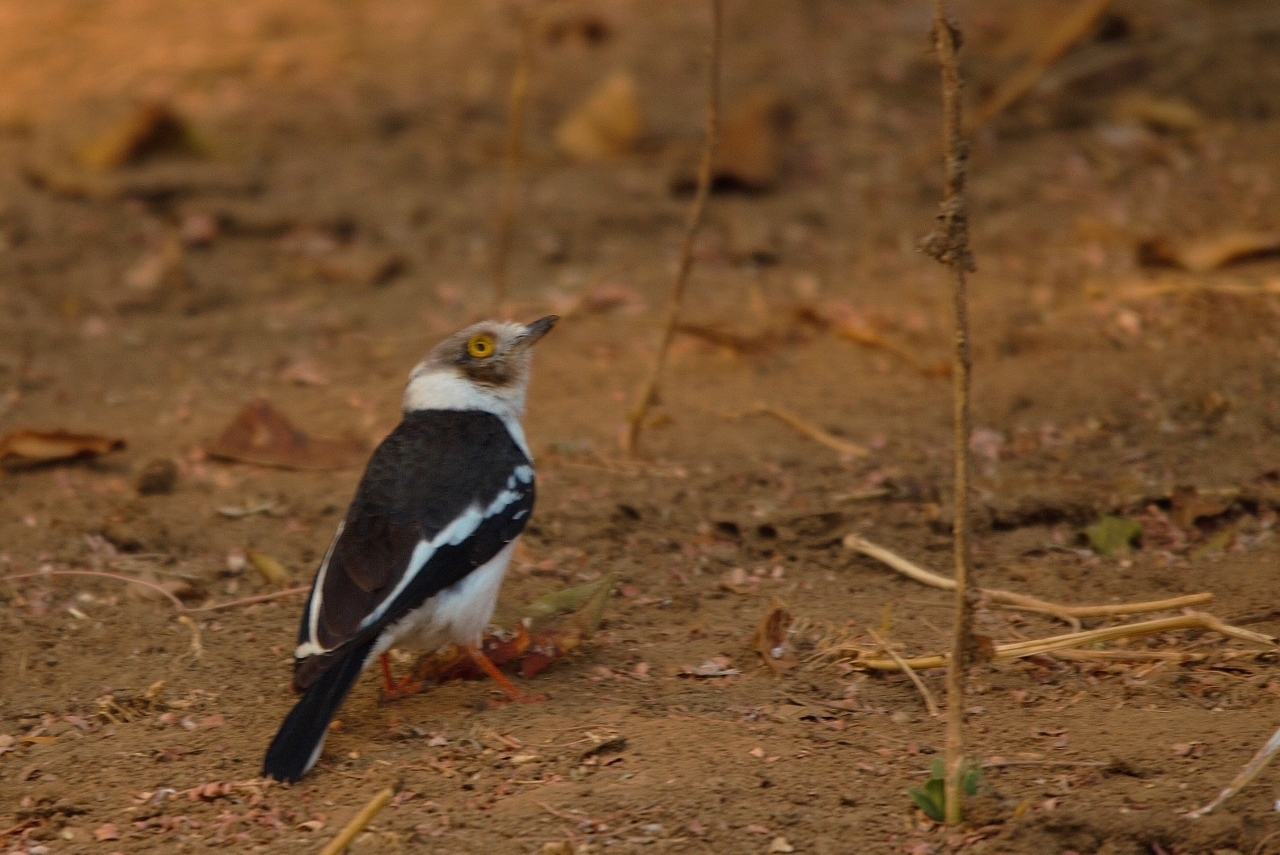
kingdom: Animalia
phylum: Chordata
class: Aves
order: Passeriformes
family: Prionopidae
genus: Prionops
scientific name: Prionops plumatus
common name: White-crested helmetshrike
